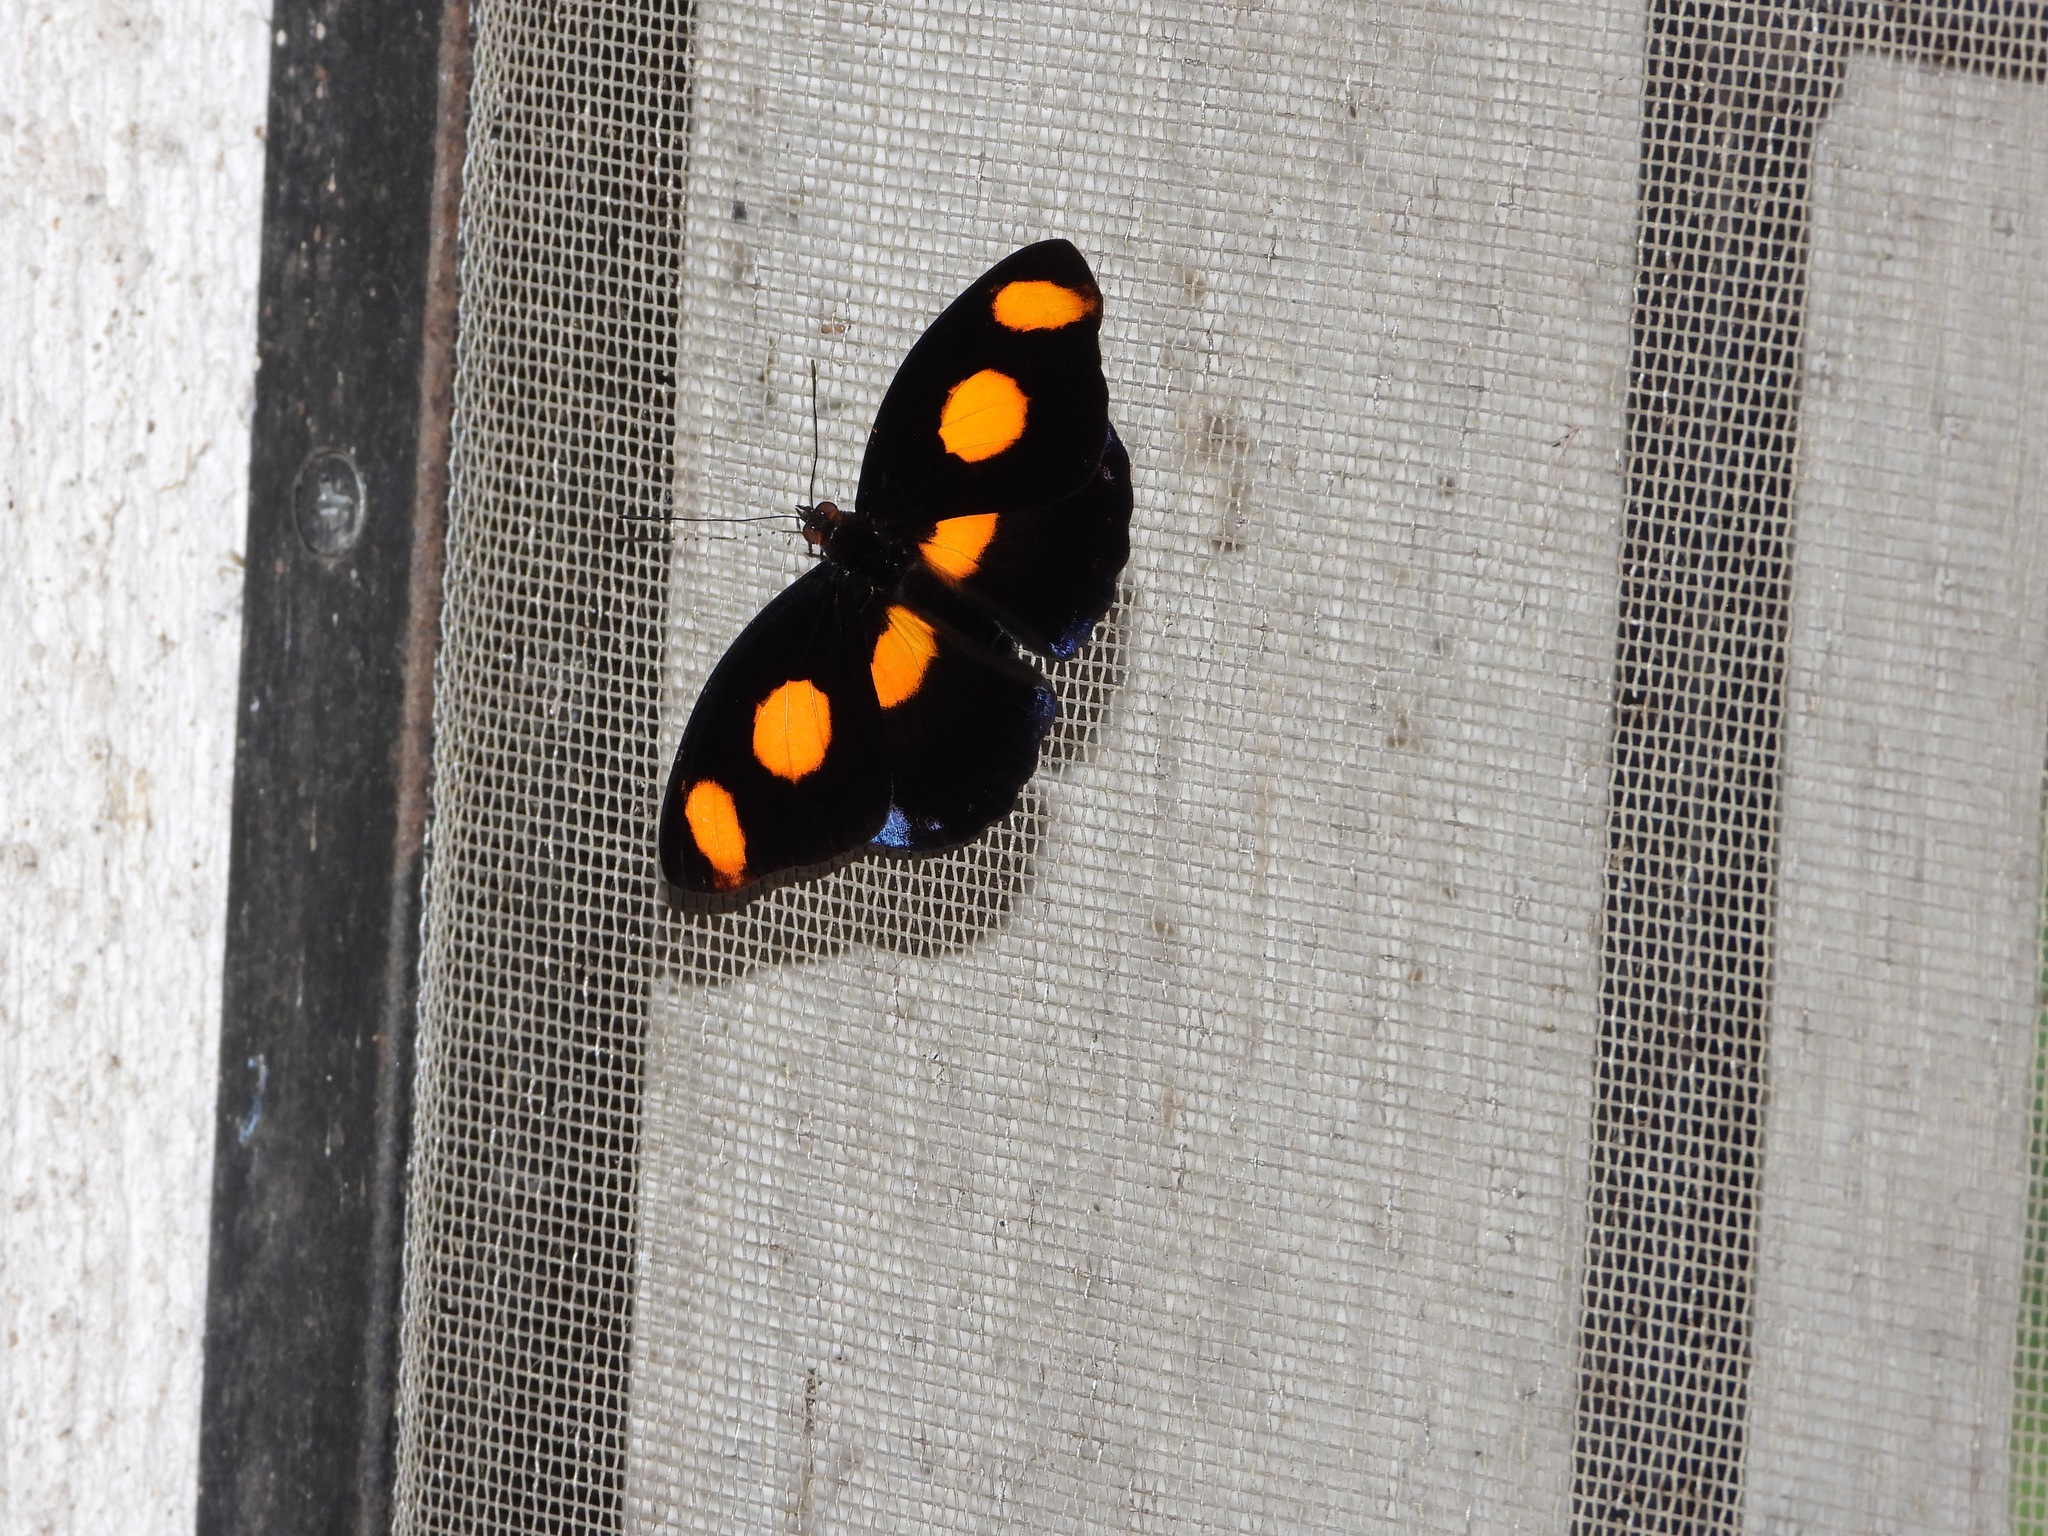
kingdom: Animalia
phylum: Arthropoda
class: Insecta
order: Lepidoptera
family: Nymphalidae
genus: Catonephele
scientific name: Catonephele numilia
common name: Blue-frosted banner
